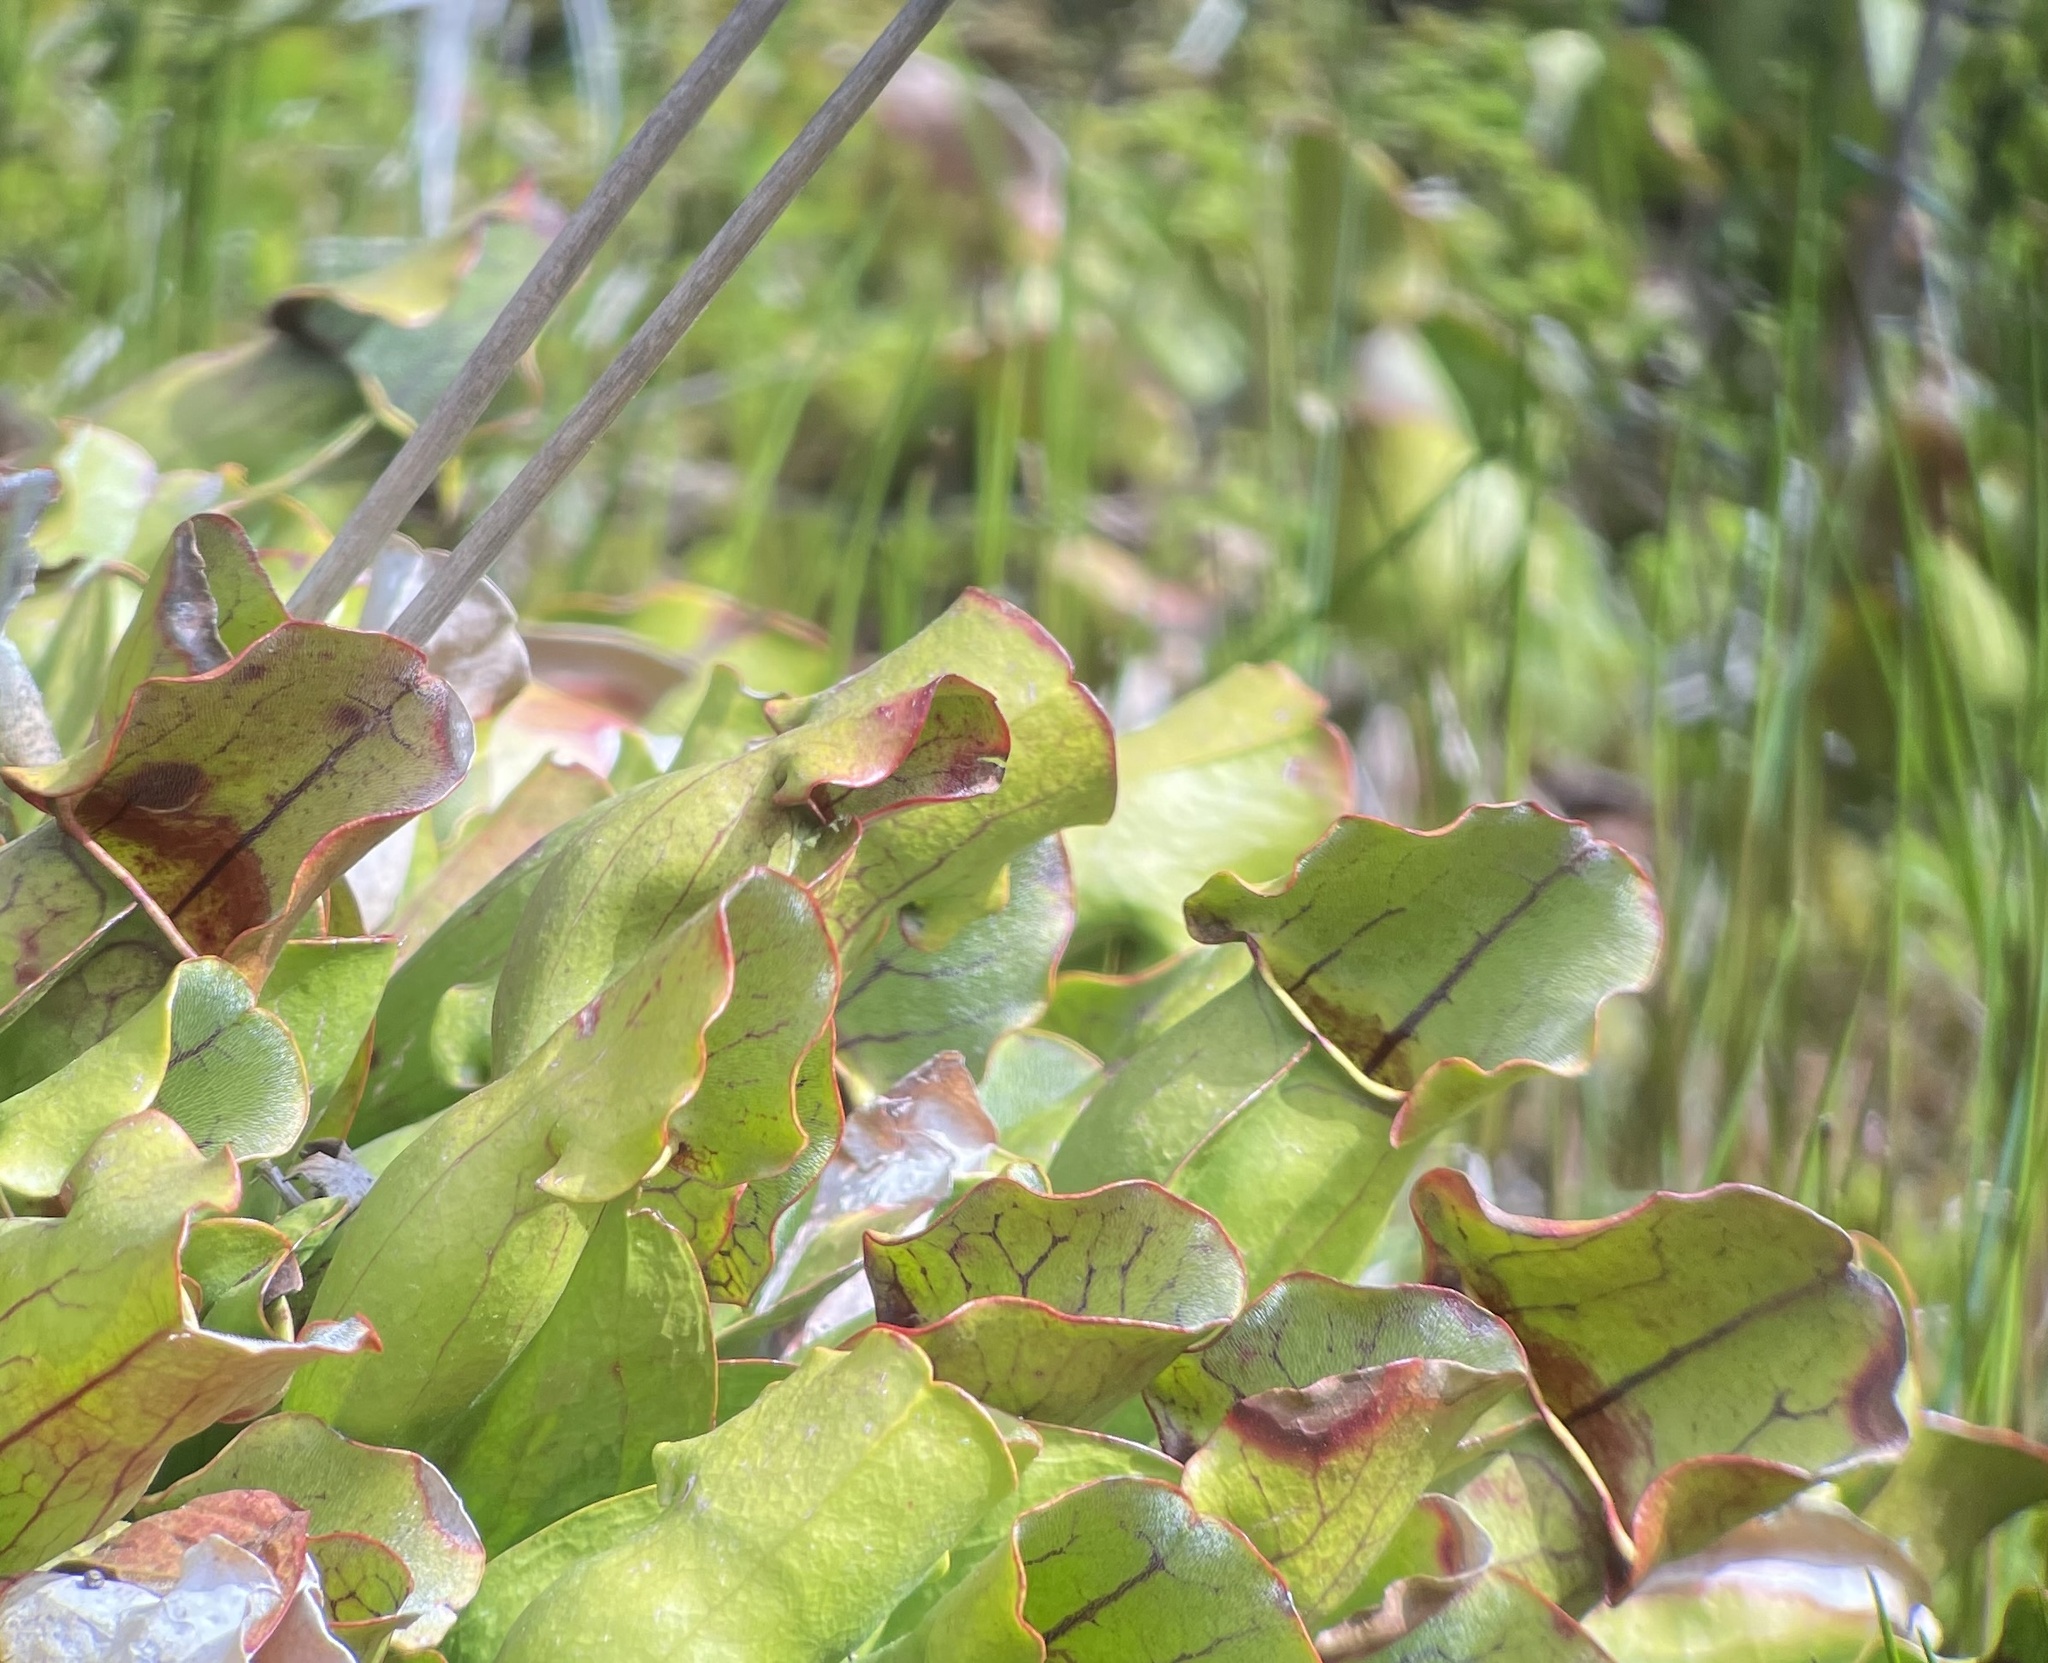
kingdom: Plantae
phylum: Tracheophyta
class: Magnoliopsida
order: Ericales
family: Sarraceniaceae
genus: Sarracenia
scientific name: Sarracenia purpurea
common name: Pitcherplant
